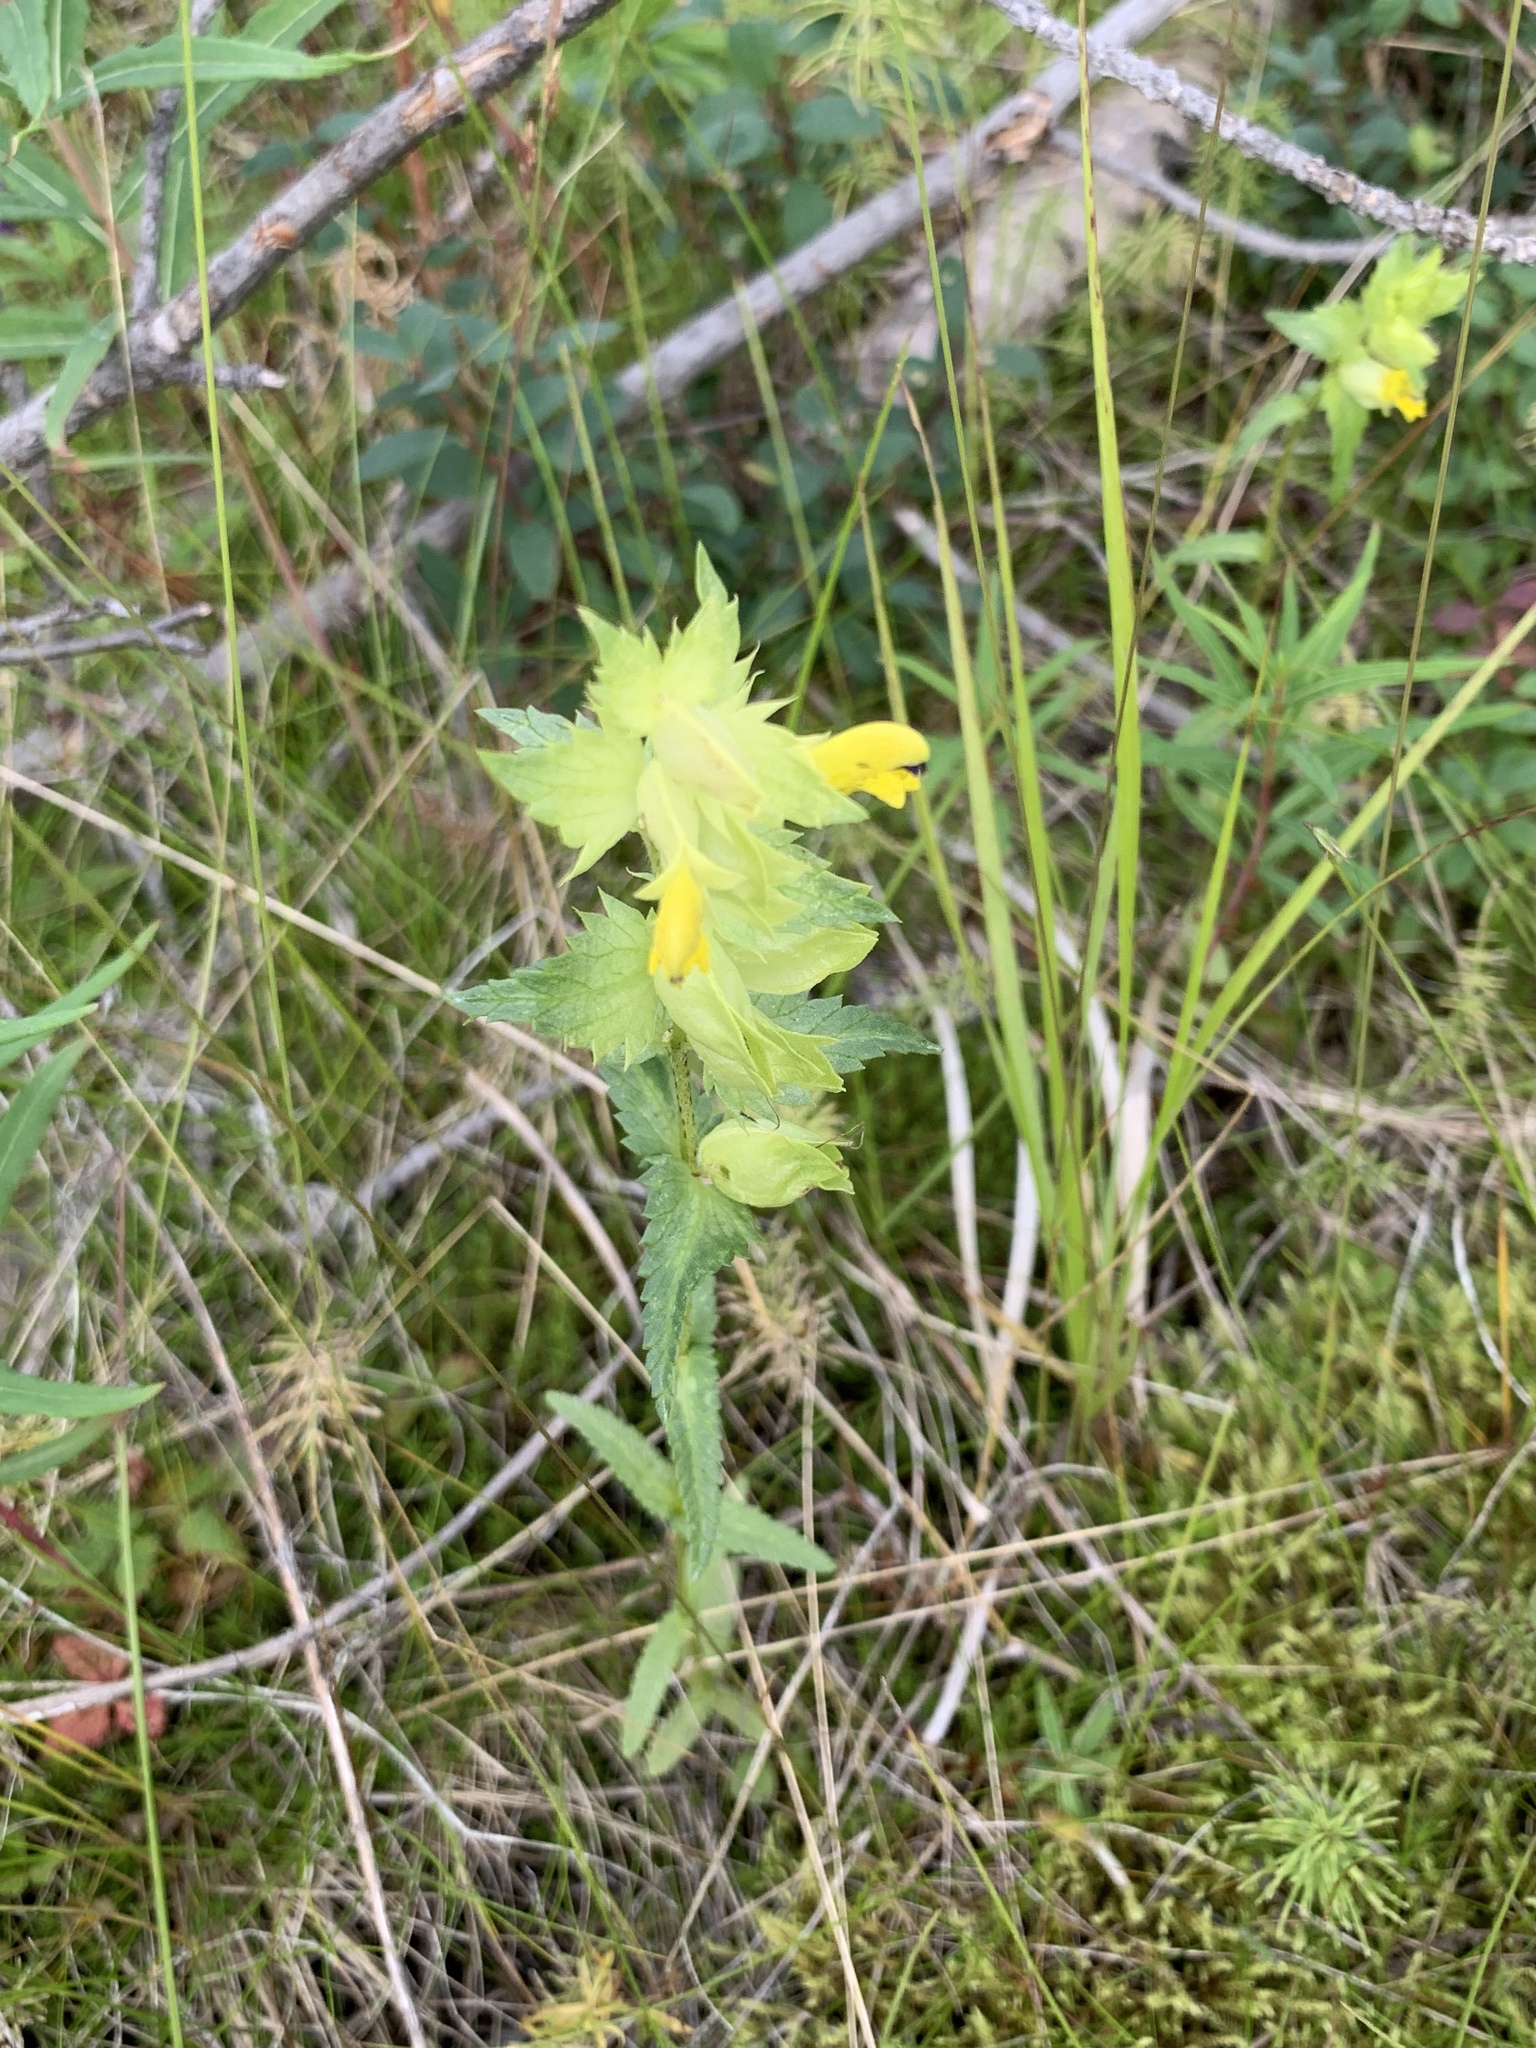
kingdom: Plantae
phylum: Tracheophyta
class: Magnoliopsida
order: Lamiales
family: Orobanchaceae
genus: Rhinanthus
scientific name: Rhinanthus serotinus
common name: Late-flowering yellow rattle
